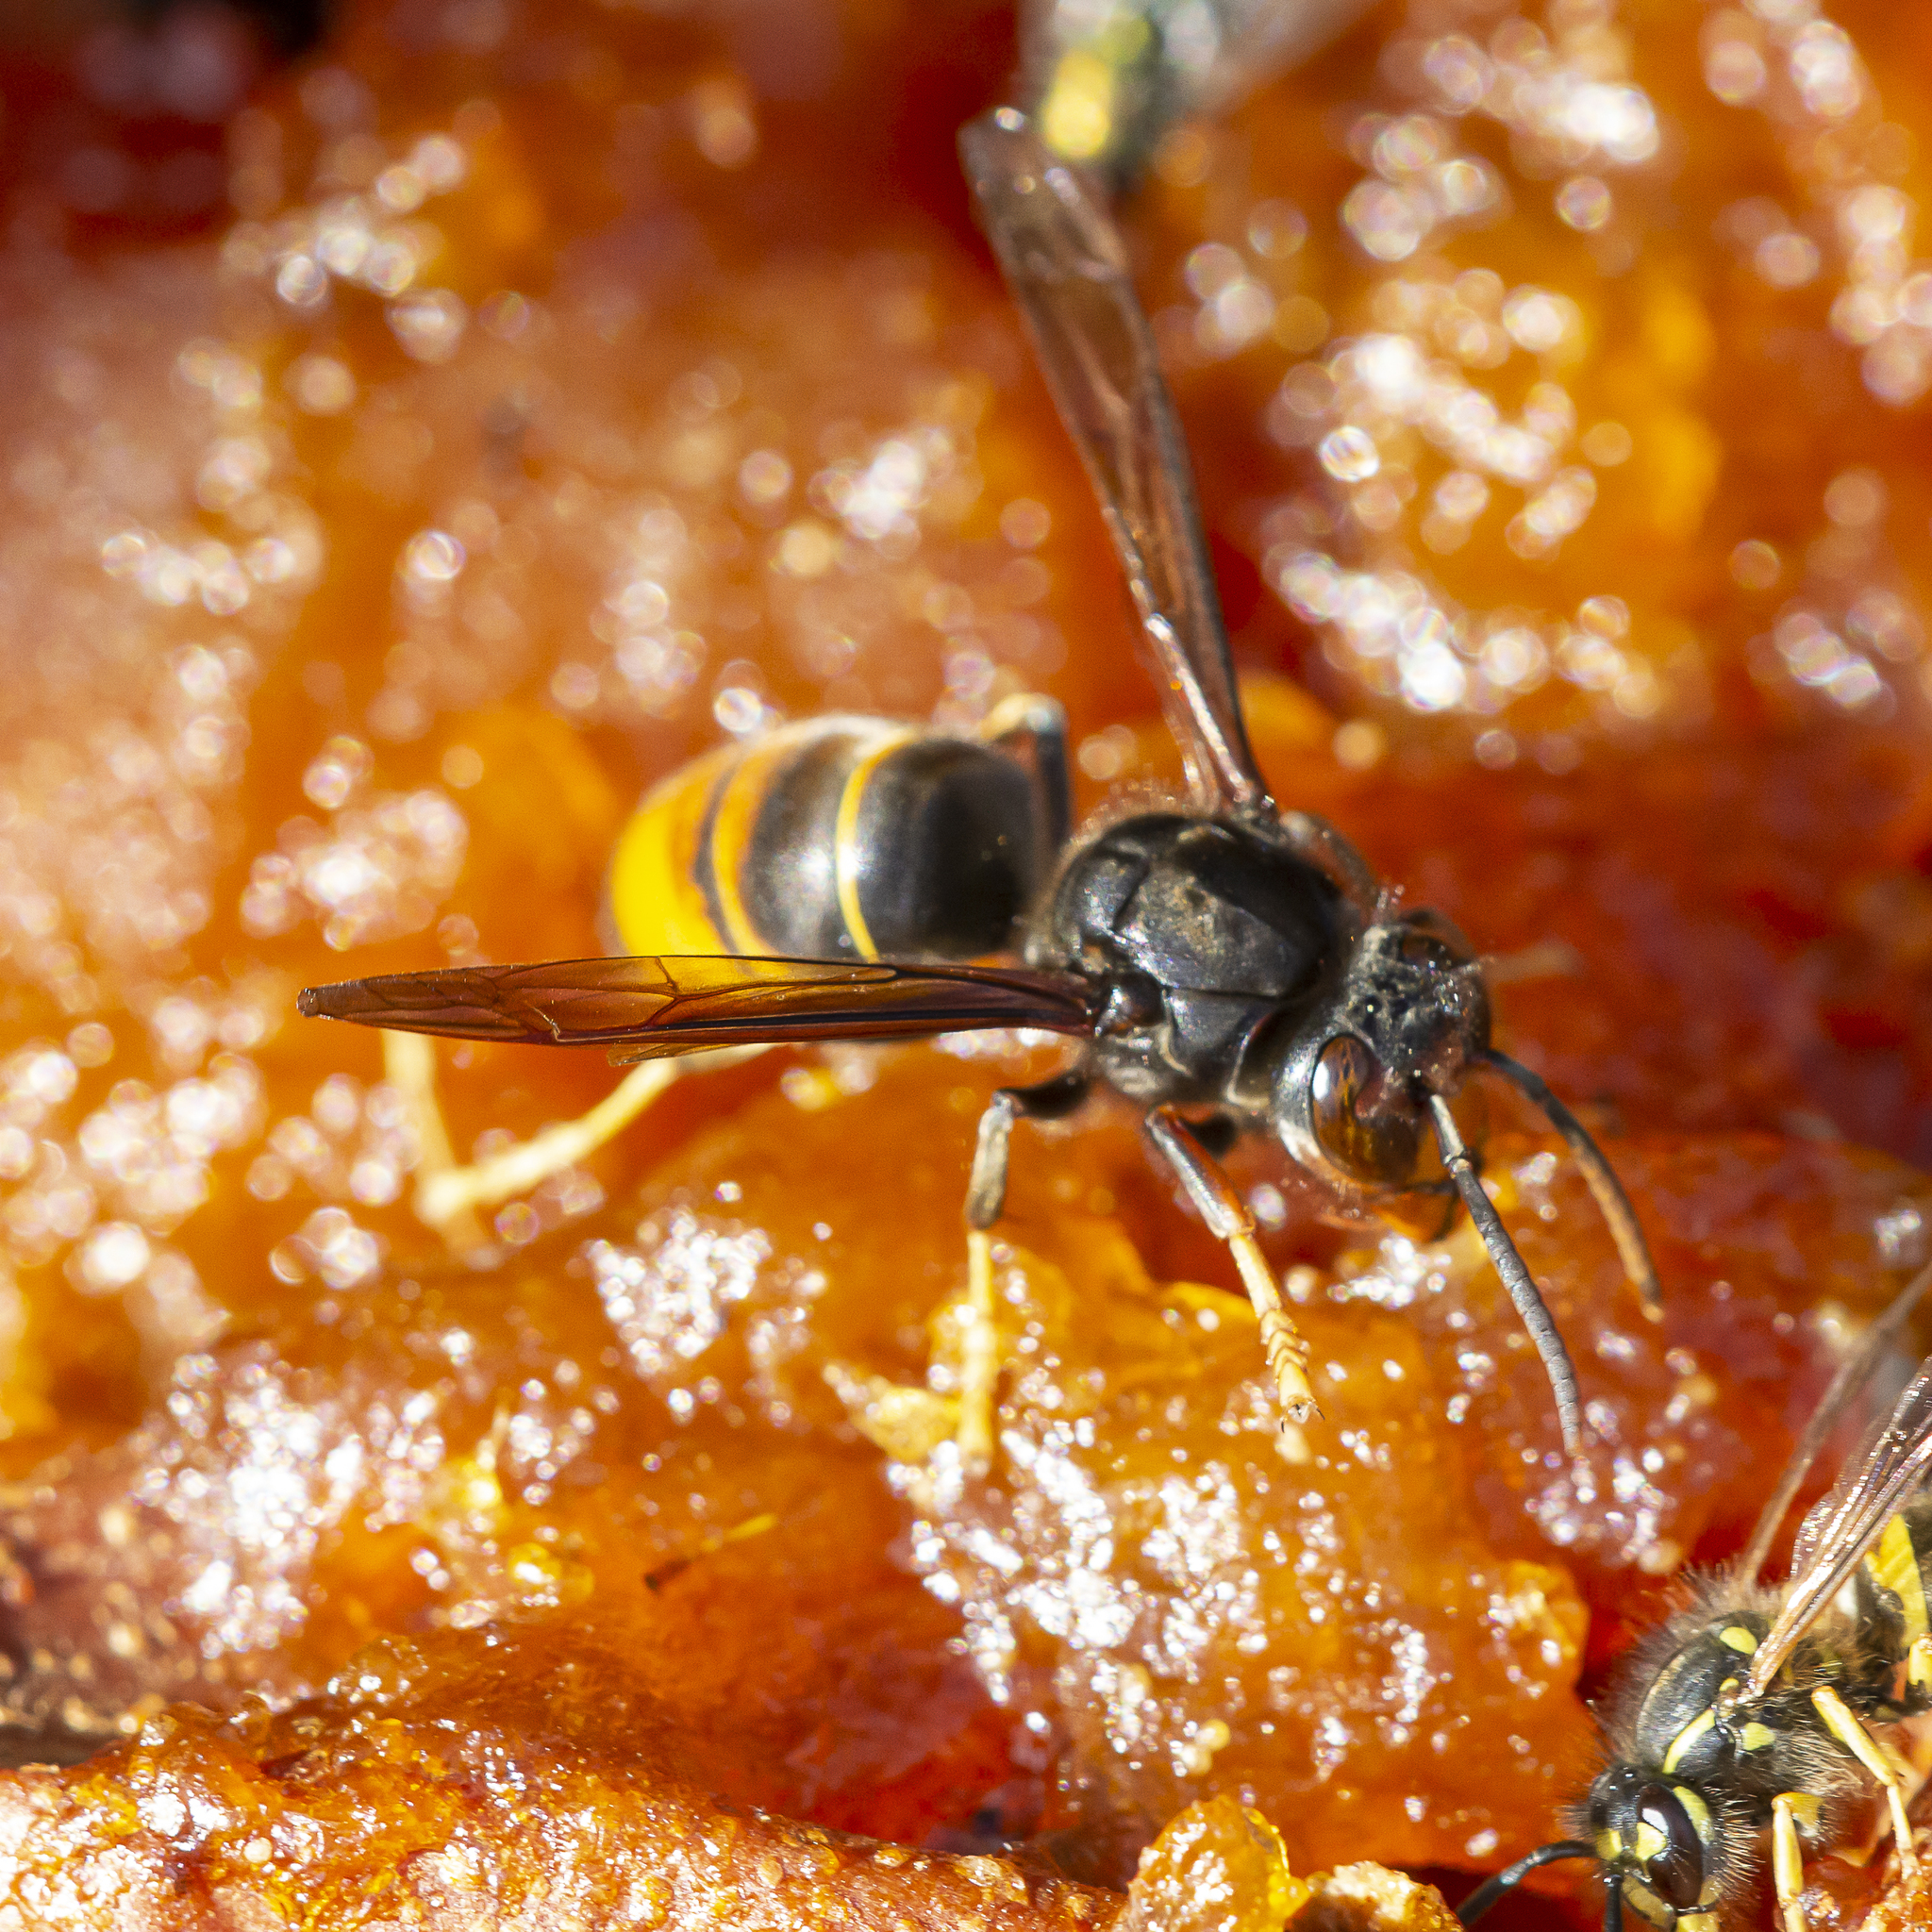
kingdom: Animalia
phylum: Arthropoda
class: Insecta
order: Hymenoptera
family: Vespidae
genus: Vespa
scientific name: Vespa velutina
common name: Asian hornet
